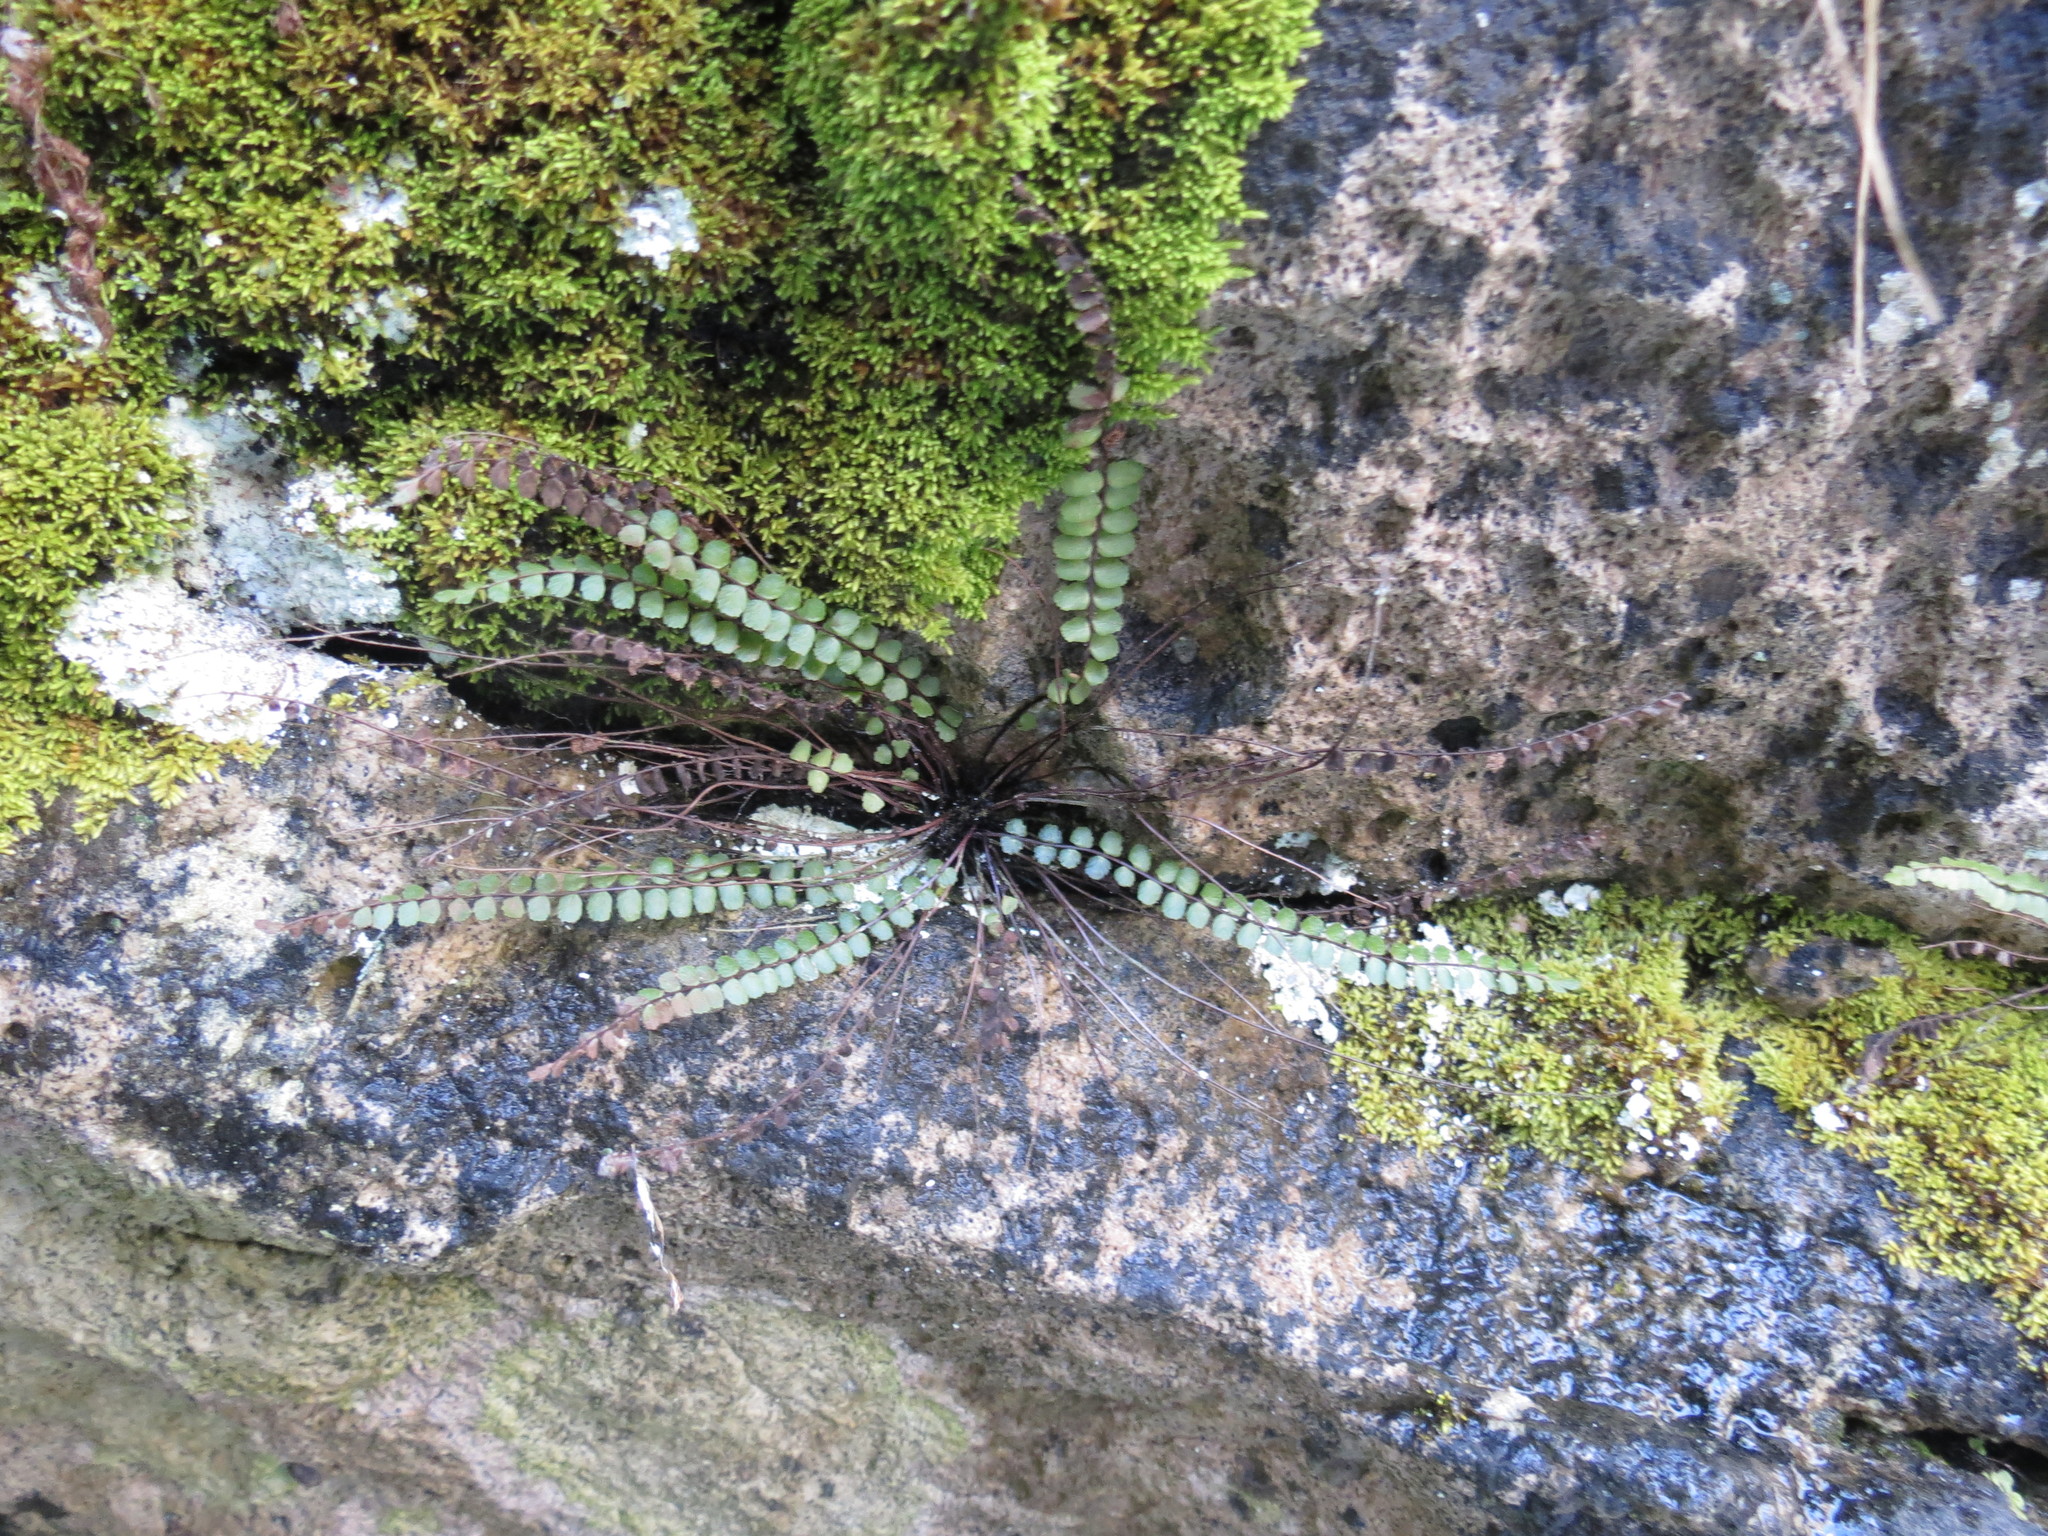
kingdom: Plantae
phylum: Tracheophyta
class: Polypodiopsida
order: Polypodiales
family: Aspleniaceae
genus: Asplenium
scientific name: Asplenium trichomanes
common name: Maidenhair spleenwort
